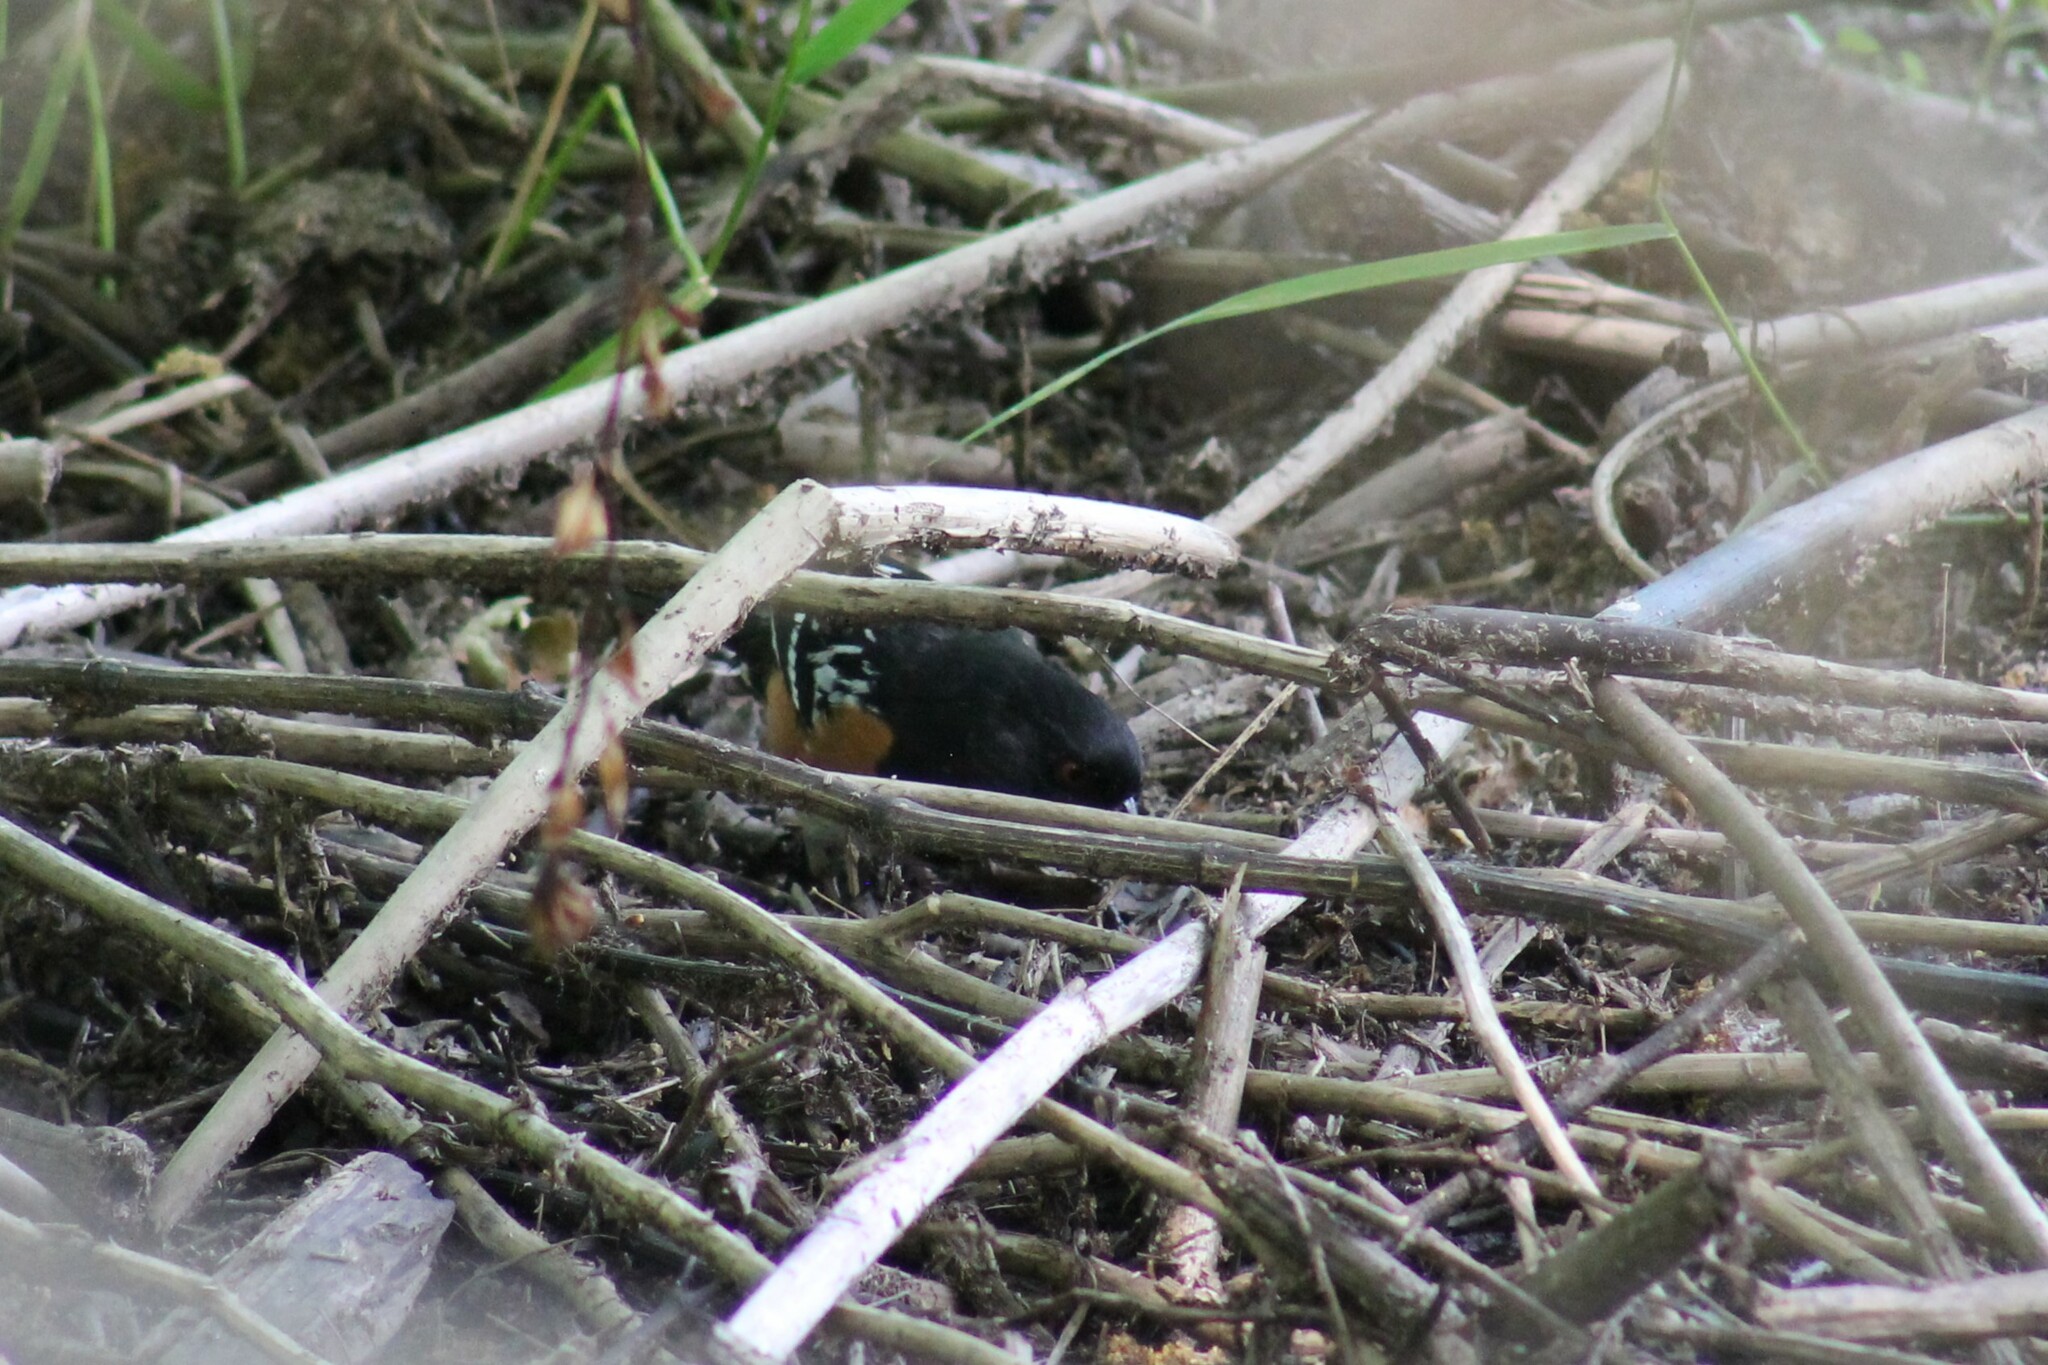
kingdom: Animalia
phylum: Chordata
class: Aves
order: Passeriformes
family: Passerellidae
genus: Pipilo
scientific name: Pipilo maculatus
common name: Spotted towhee
